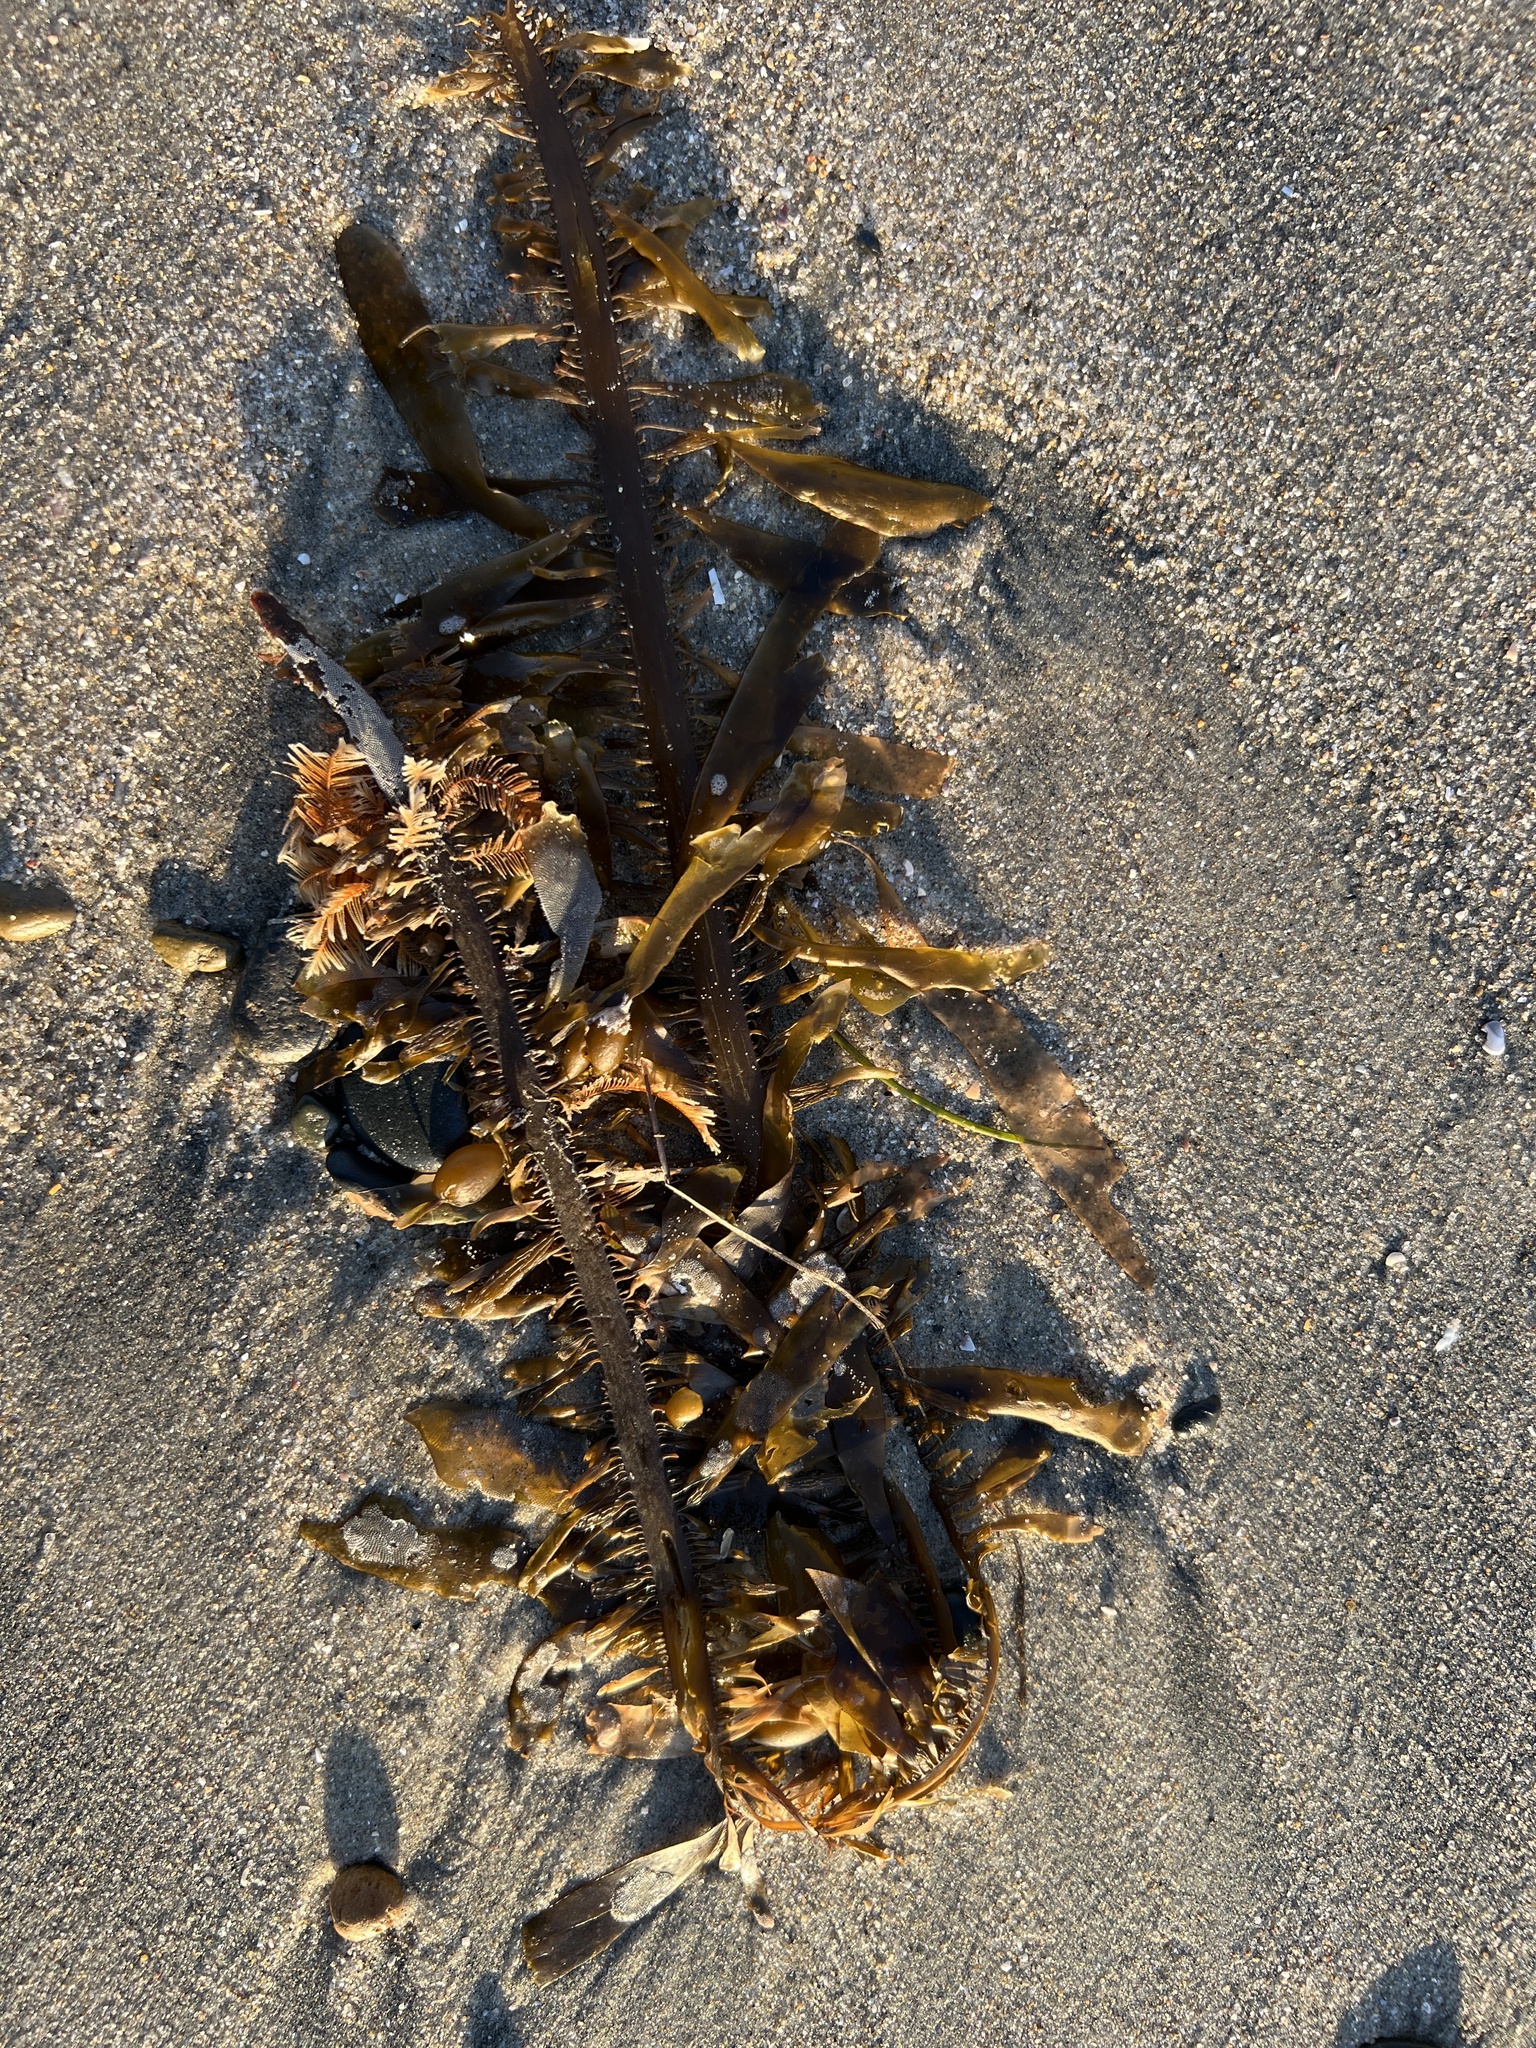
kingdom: Chromista
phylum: Ochrophyta
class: Phaeophyceae
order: Laminariales
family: Lessoniaceae
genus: Egregia
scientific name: Egregia menziesii
